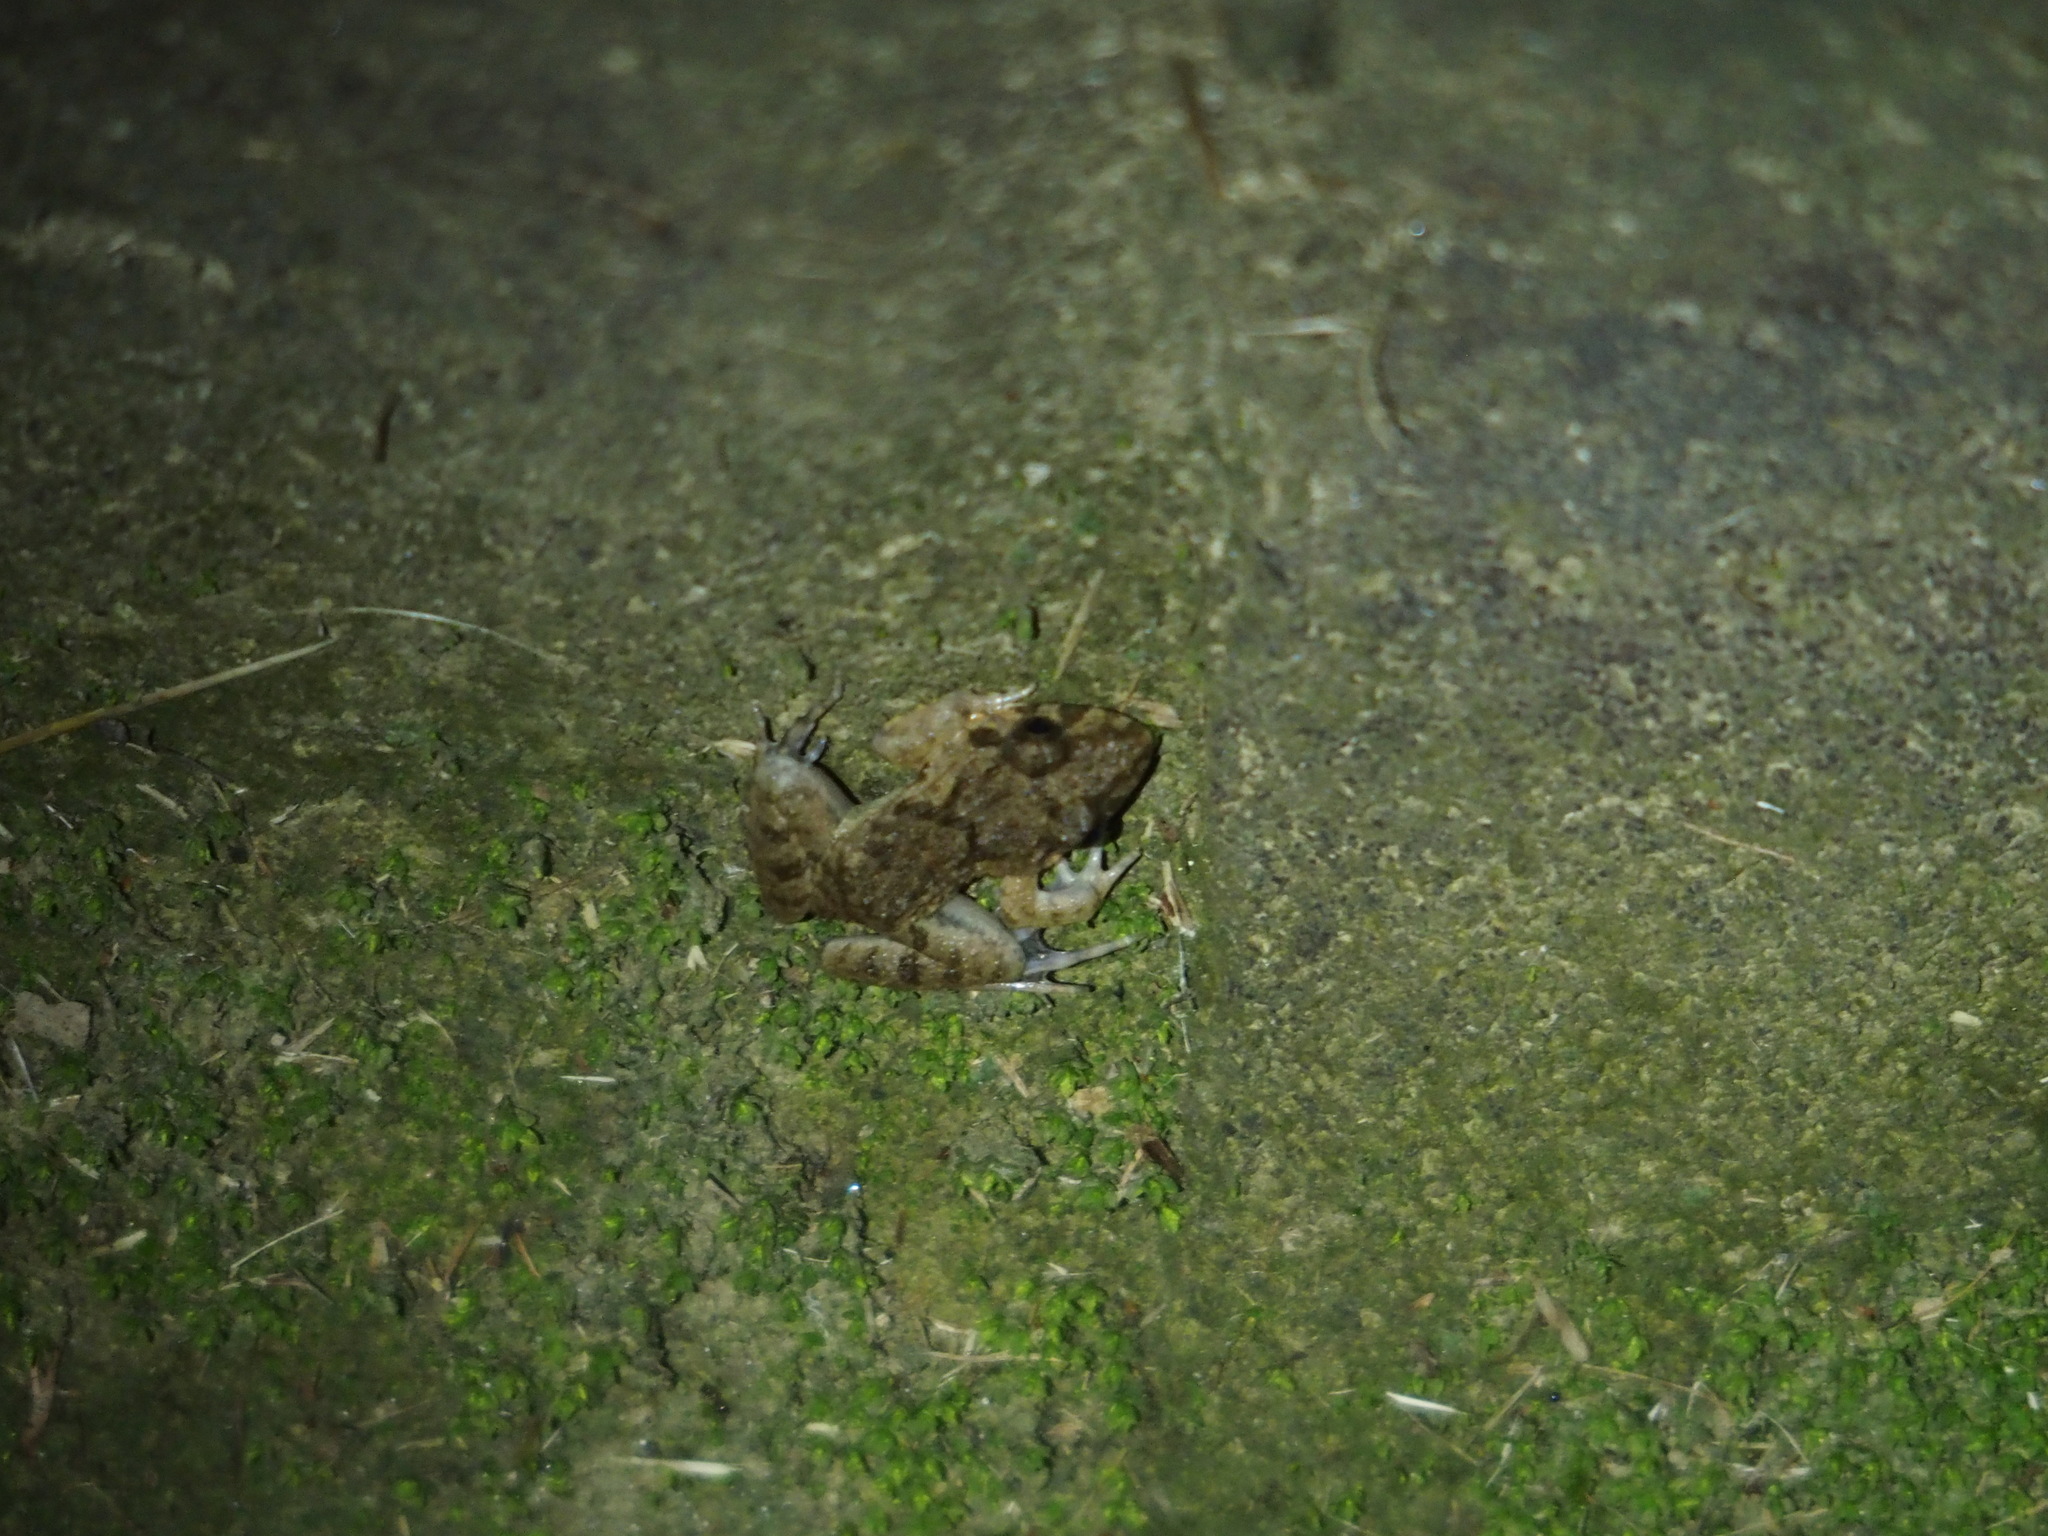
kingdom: Animalia
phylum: Chordata
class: Amphibia
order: Anura
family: Dicroglossidae
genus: Fejervarya
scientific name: Fejervarya limnocharis
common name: Asian grass frog/common pond frog/field frog/grass frog/indian rice frog
